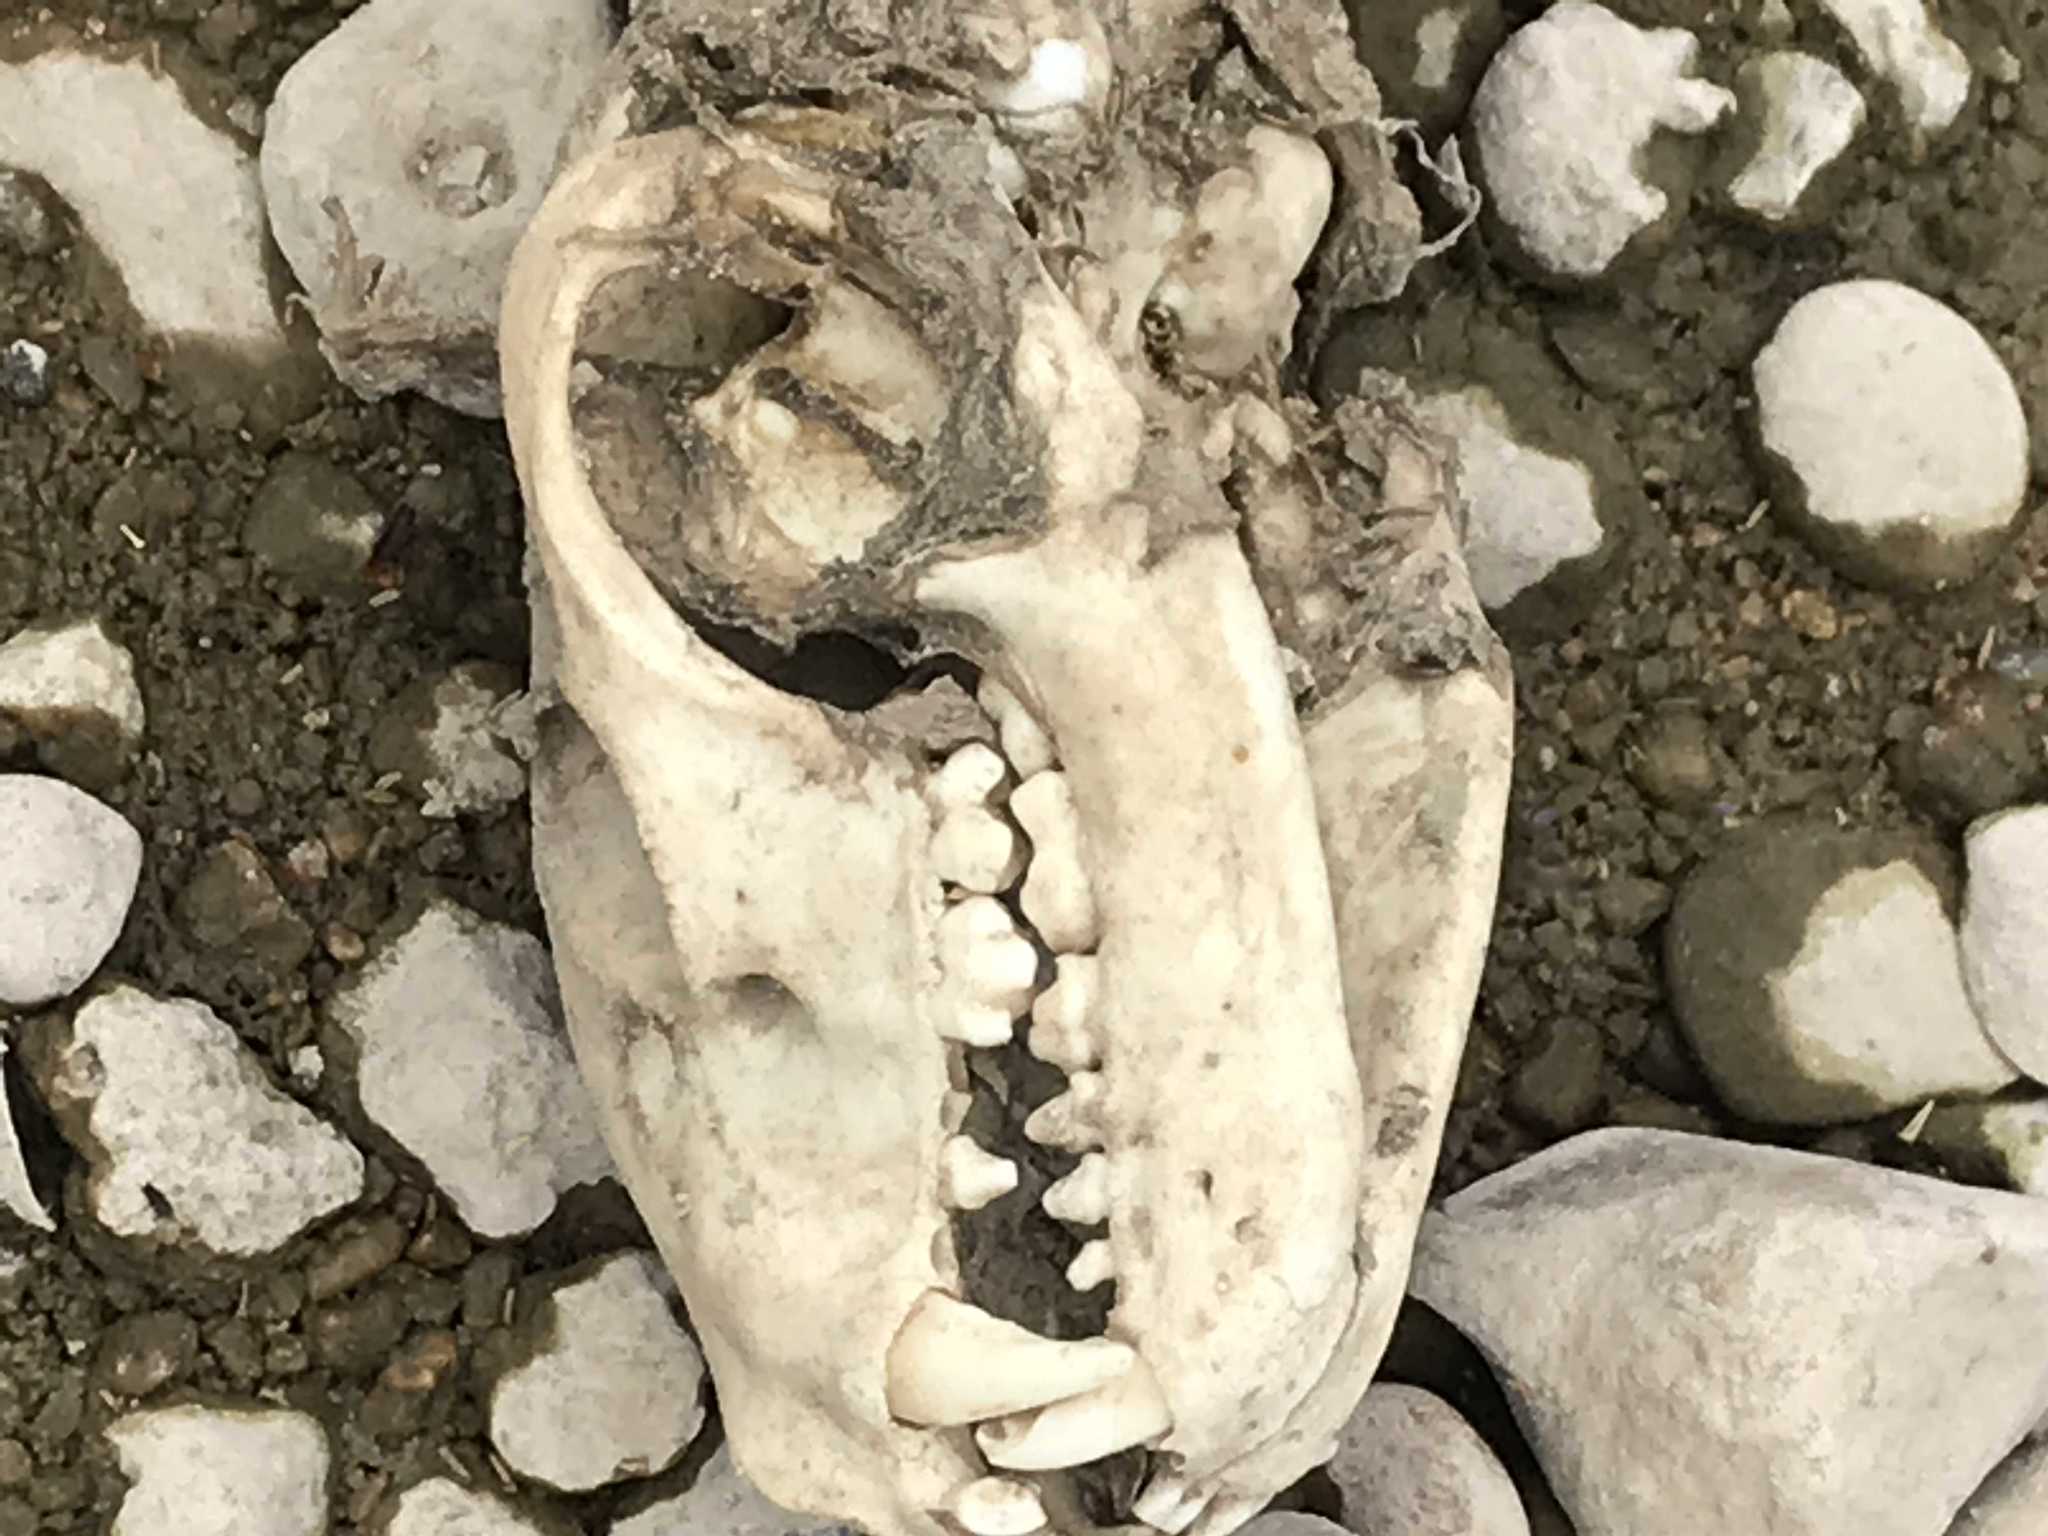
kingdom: Animalia
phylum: Chordata
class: Mammalia
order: Carnivora
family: Procyonidae
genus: Procyon
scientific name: Procyon lotor
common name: Raccoon
